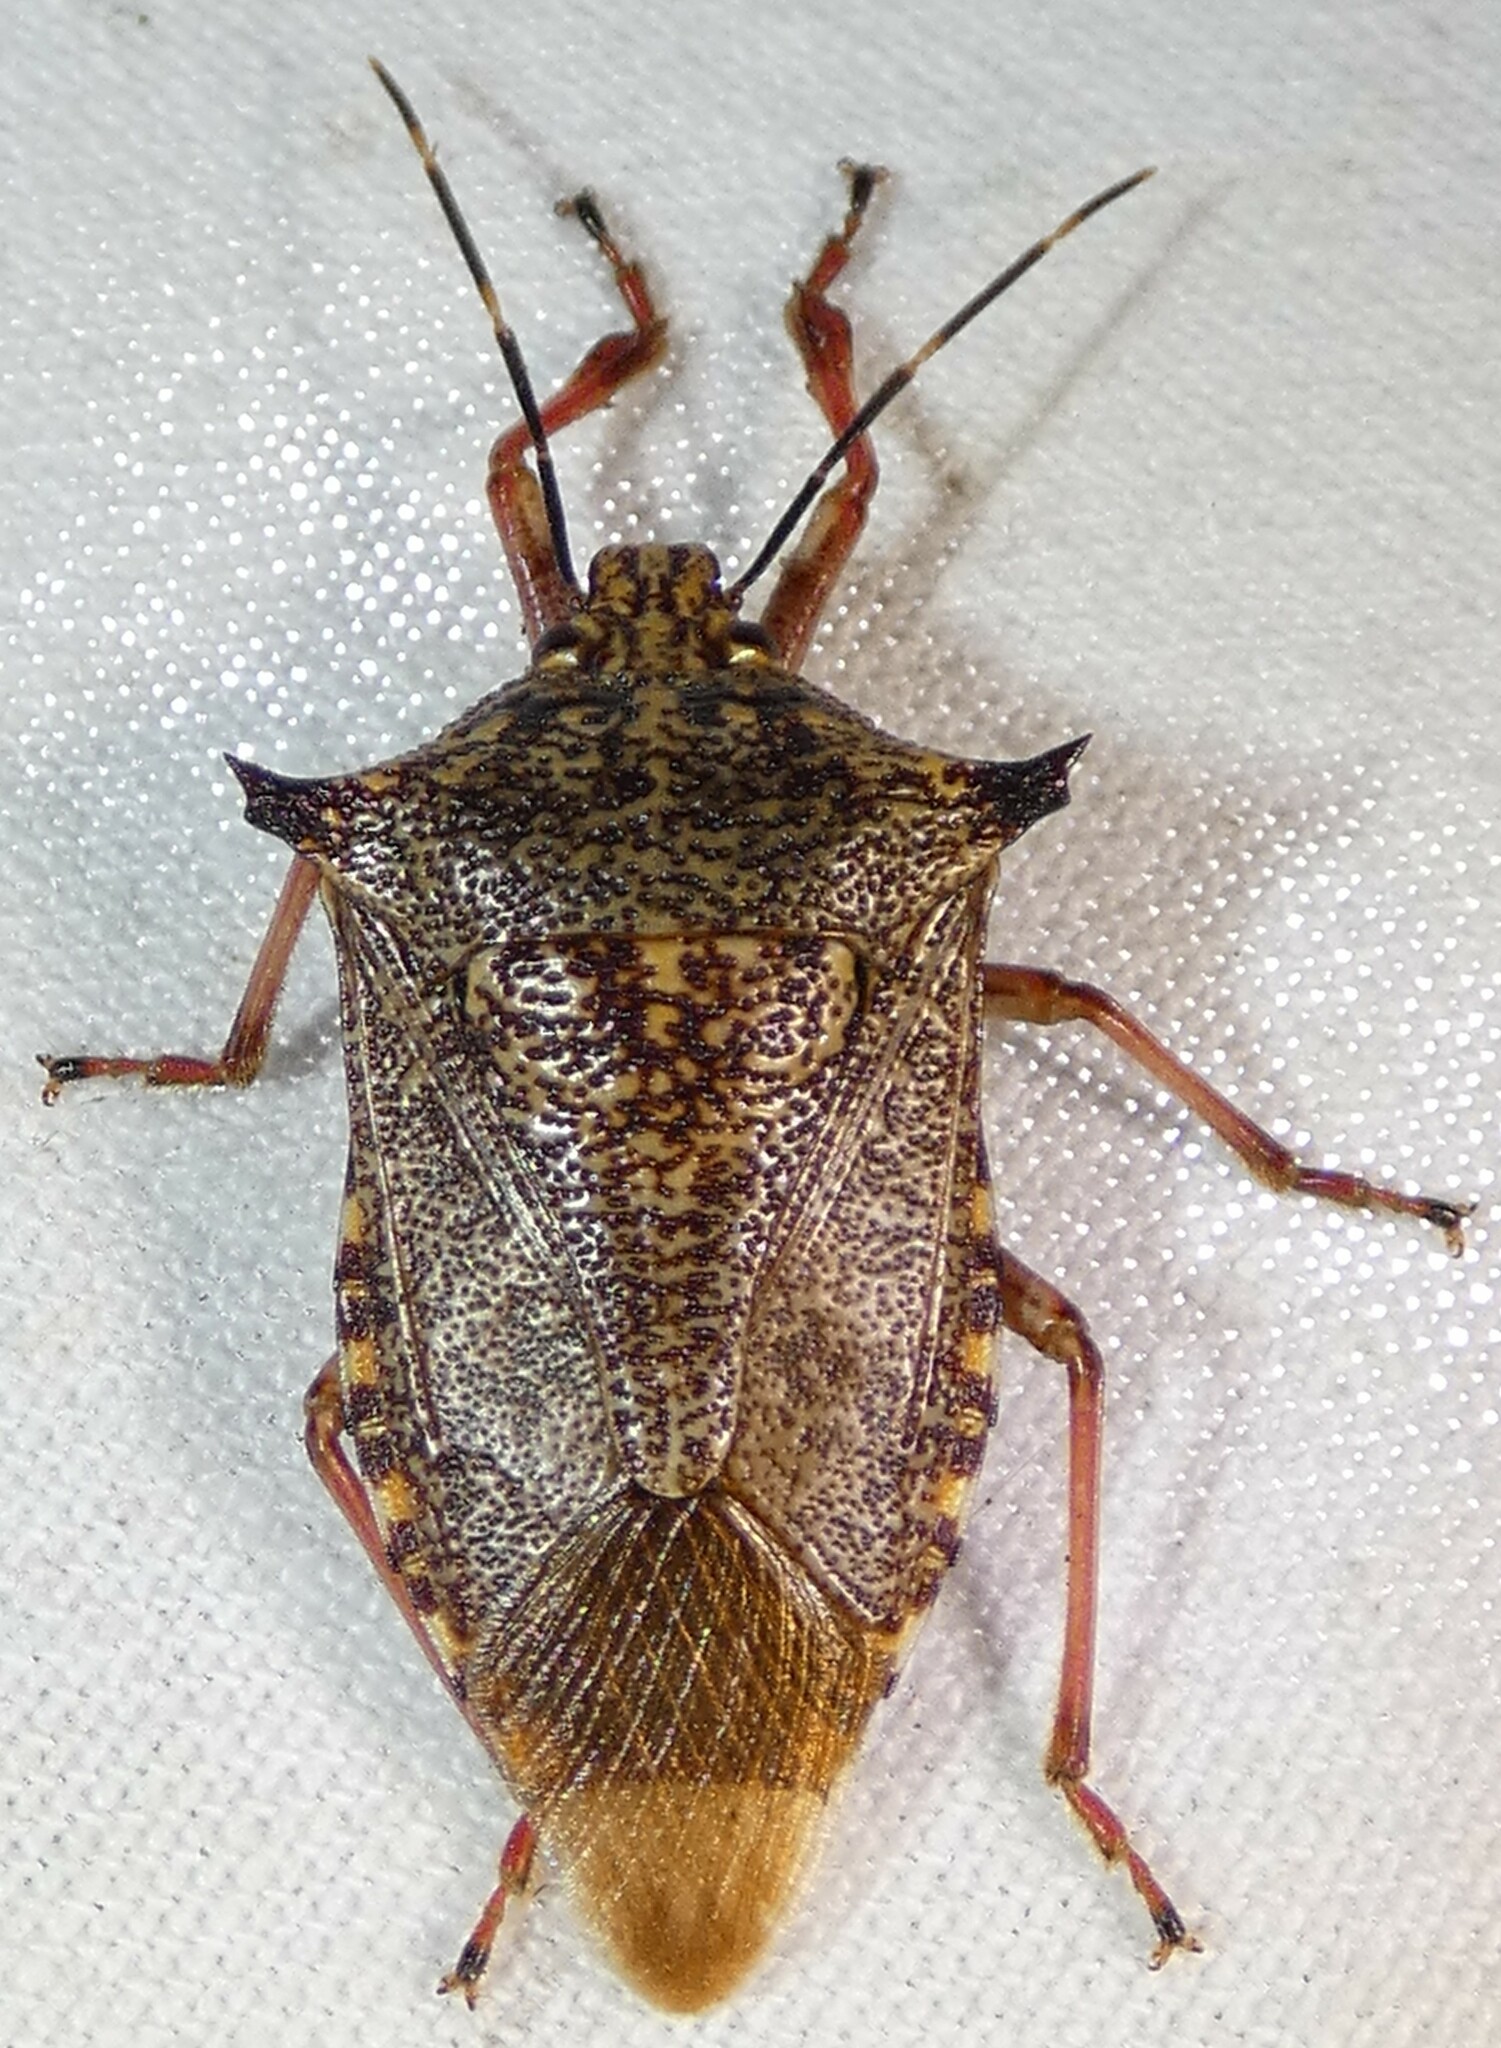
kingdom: Animalia
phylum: Arthropoda
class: Insecta
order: Hemiptera
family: Pentatomidae
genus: Alcaeorrhynchus
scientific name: Alcaeorrhynchus grandis
